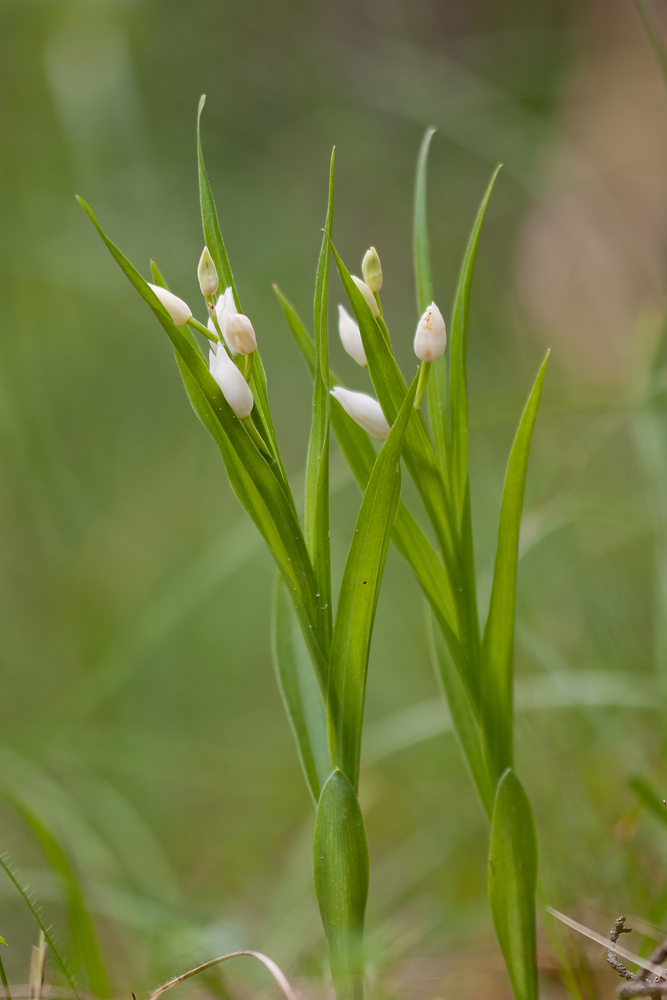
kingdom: Plantae
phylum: Tracheophyta
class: Liliopsida
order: Asparagales
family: Orchidaceae
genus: Cephalanthera
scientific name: Cephalanthera longifolia
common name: Narrow-leaved helleborine
